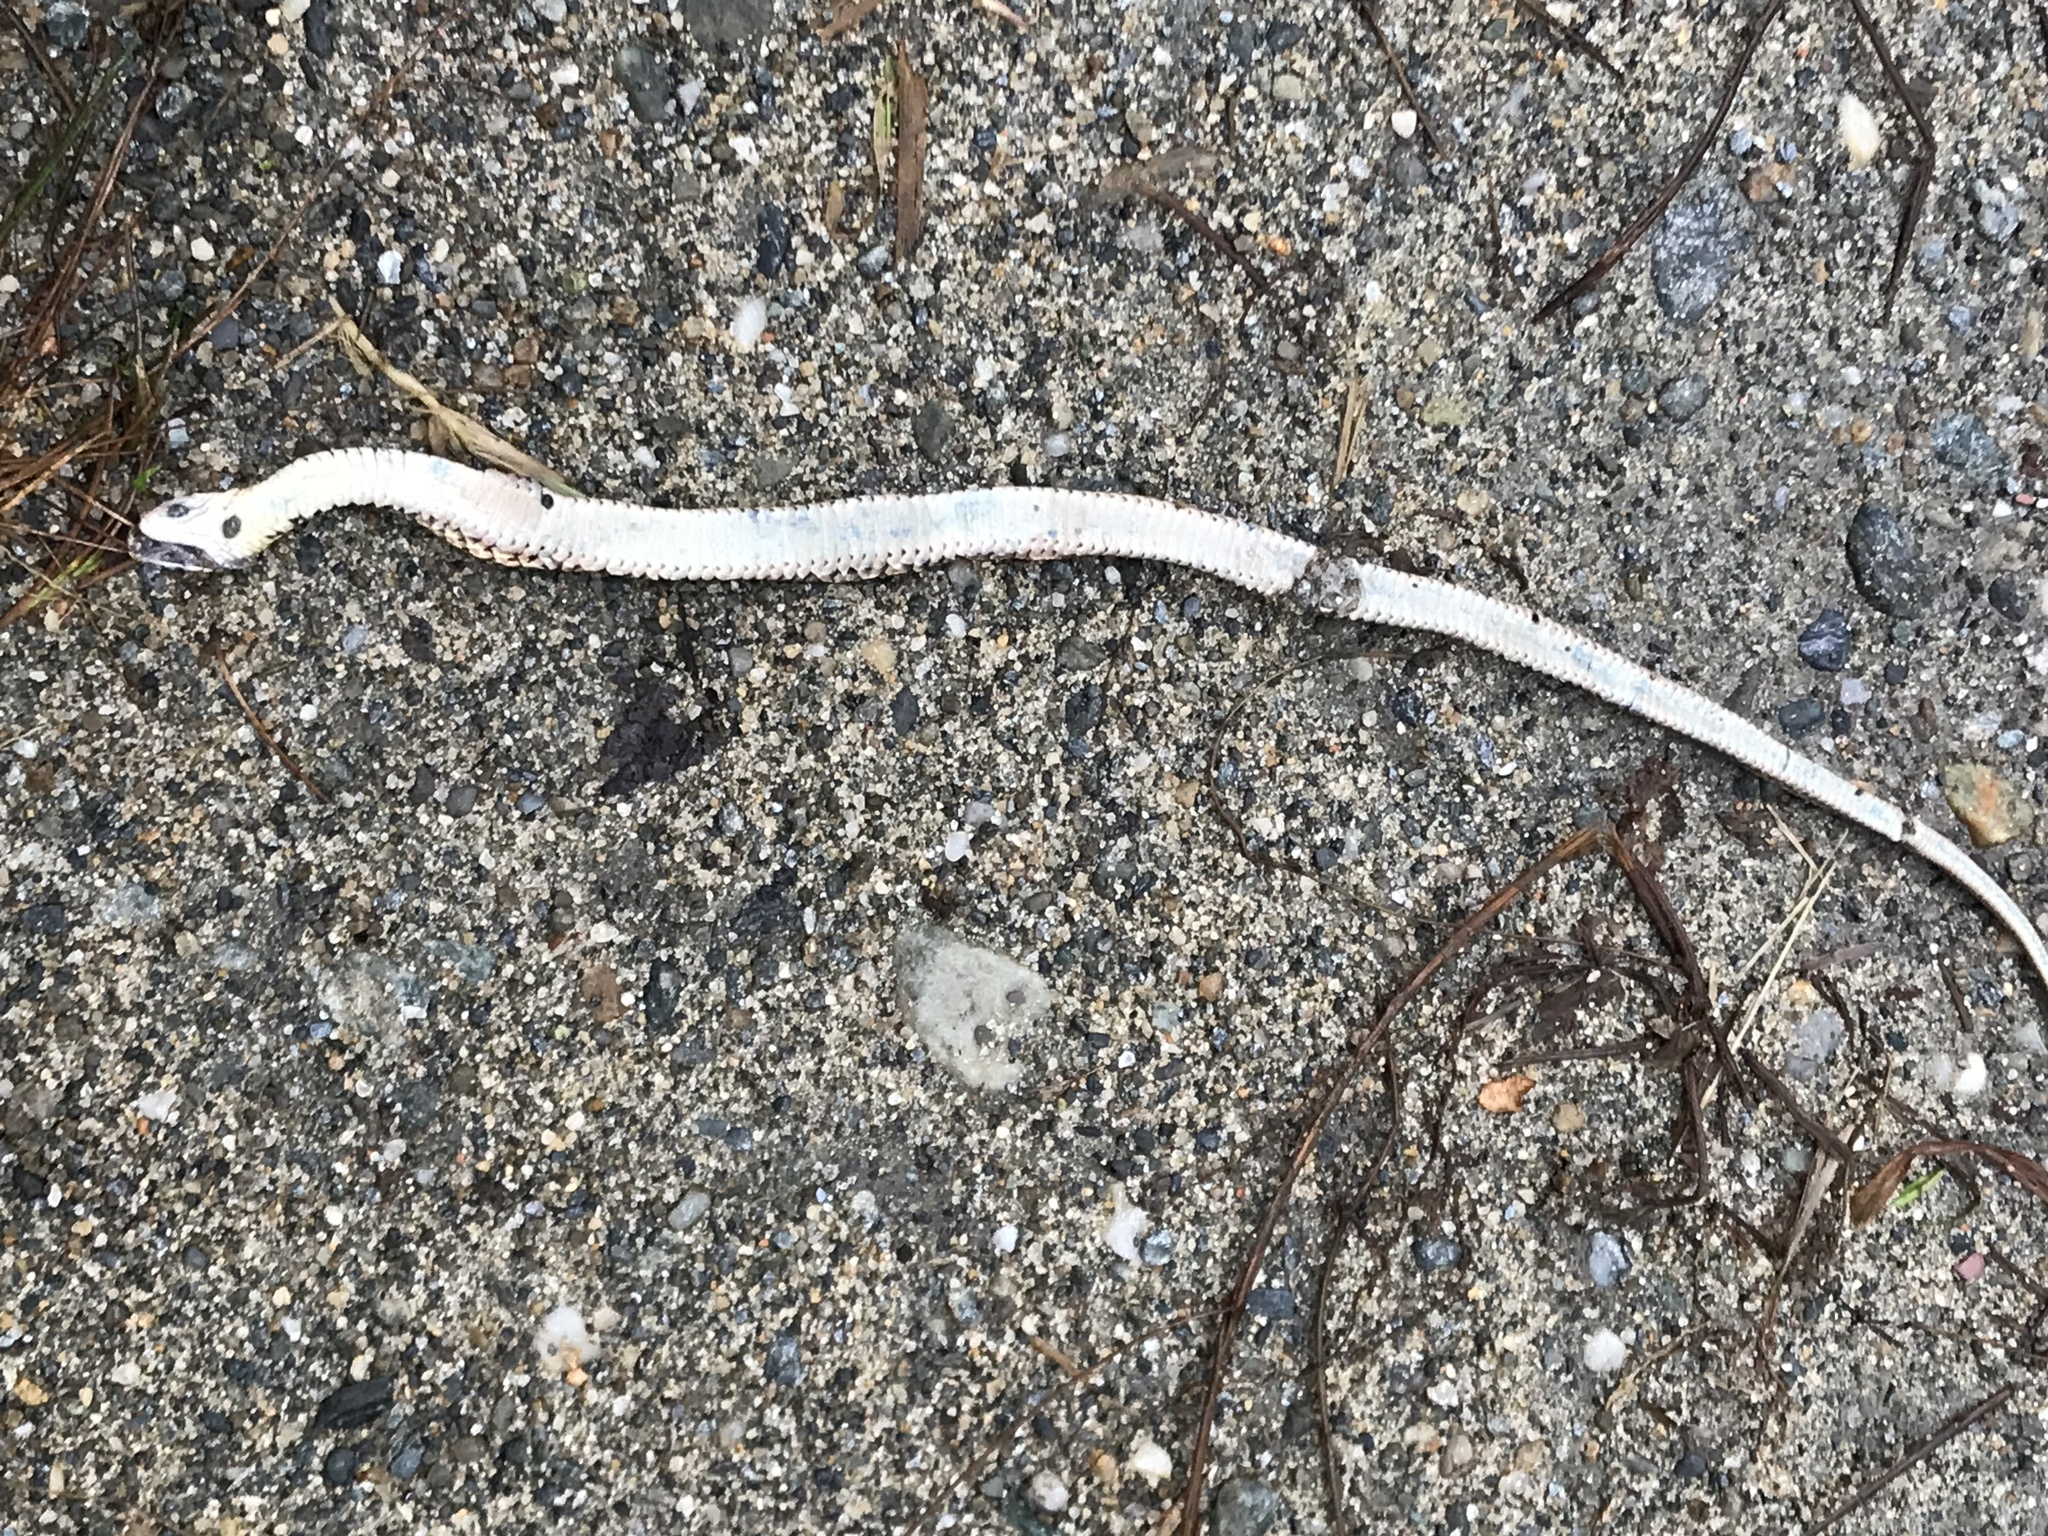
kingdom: Animalia
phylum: Chordata
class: Squamata
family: Colubridae
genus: Thamnophis
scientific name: Thamnophis sirtalis
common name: Common garter snake
